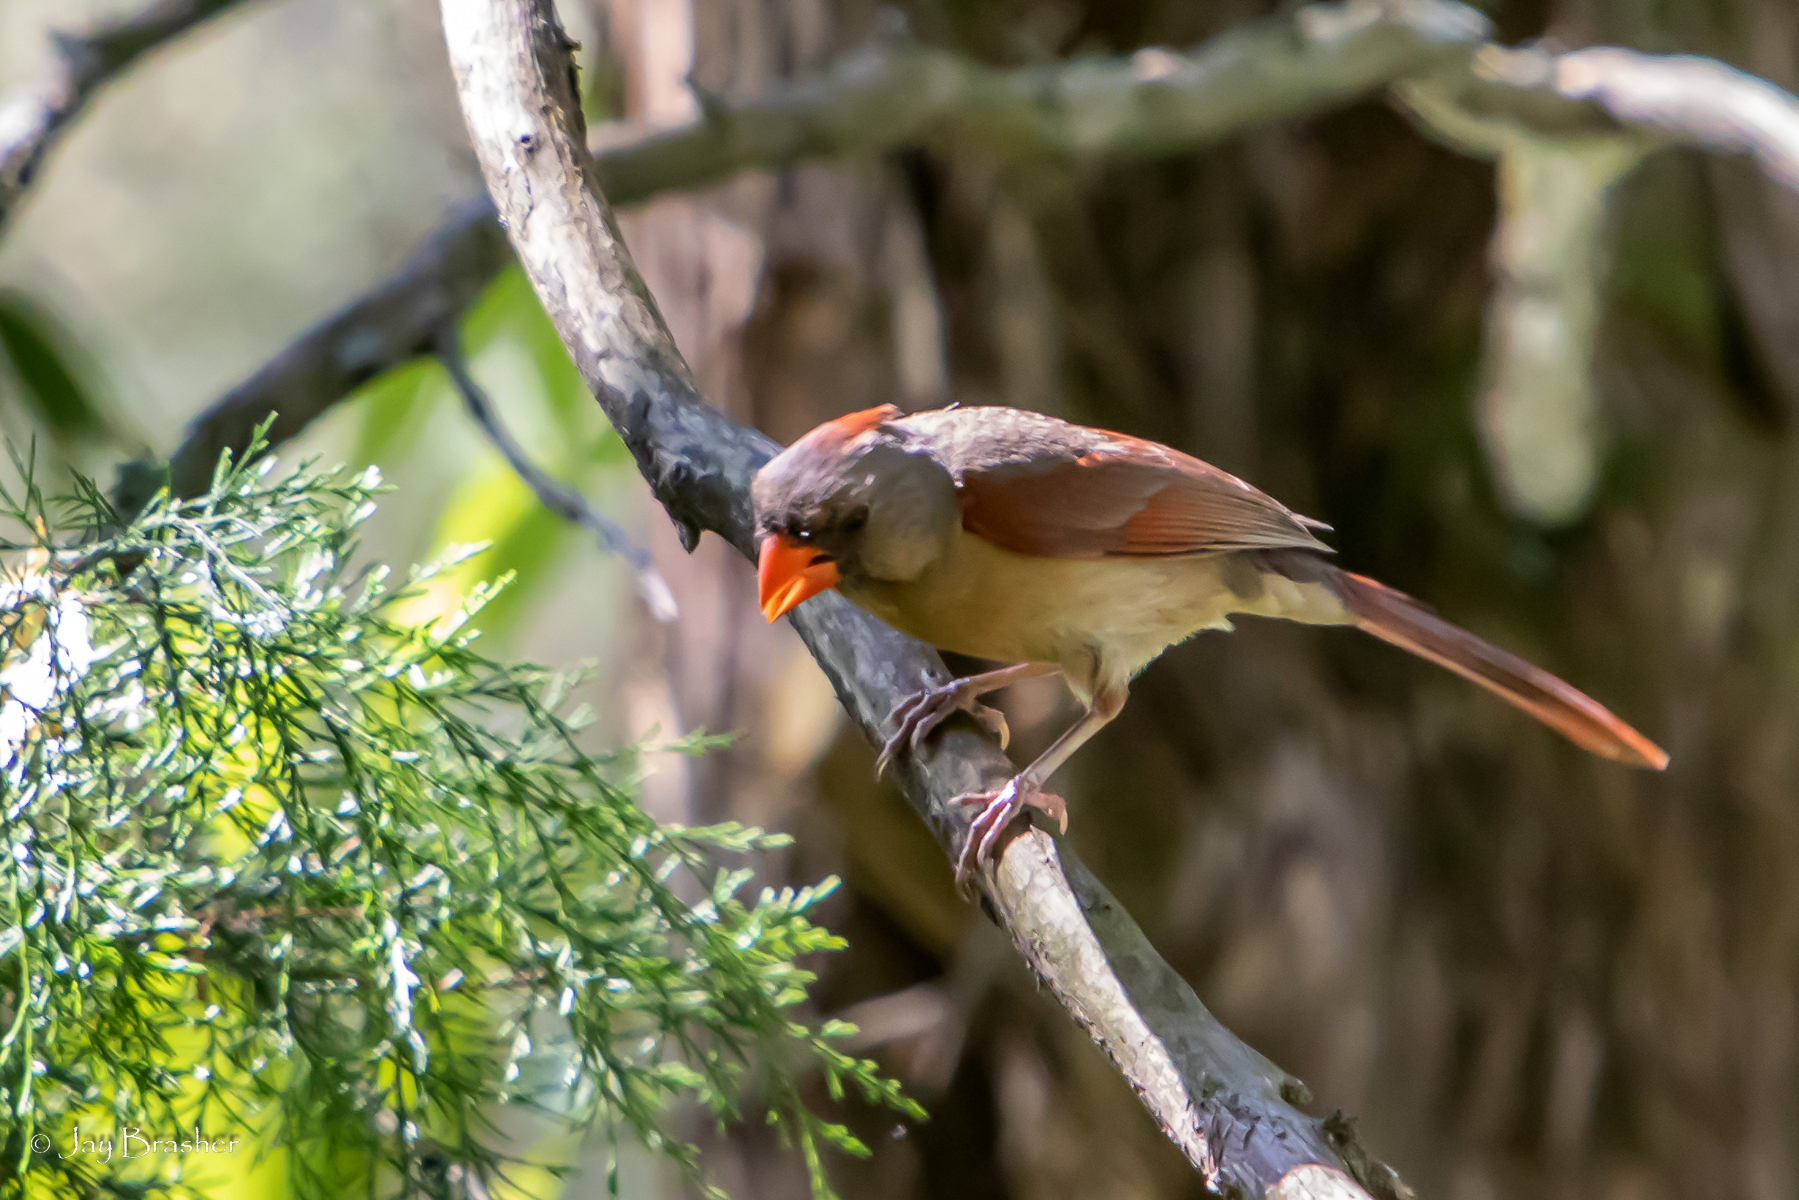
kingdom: Animalia
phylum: Chordata
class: Aves
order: Passeriformes
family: Cardinalidae
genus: Cardinalis
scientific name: Cardinalis cardinalis
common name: Northern cardinal
